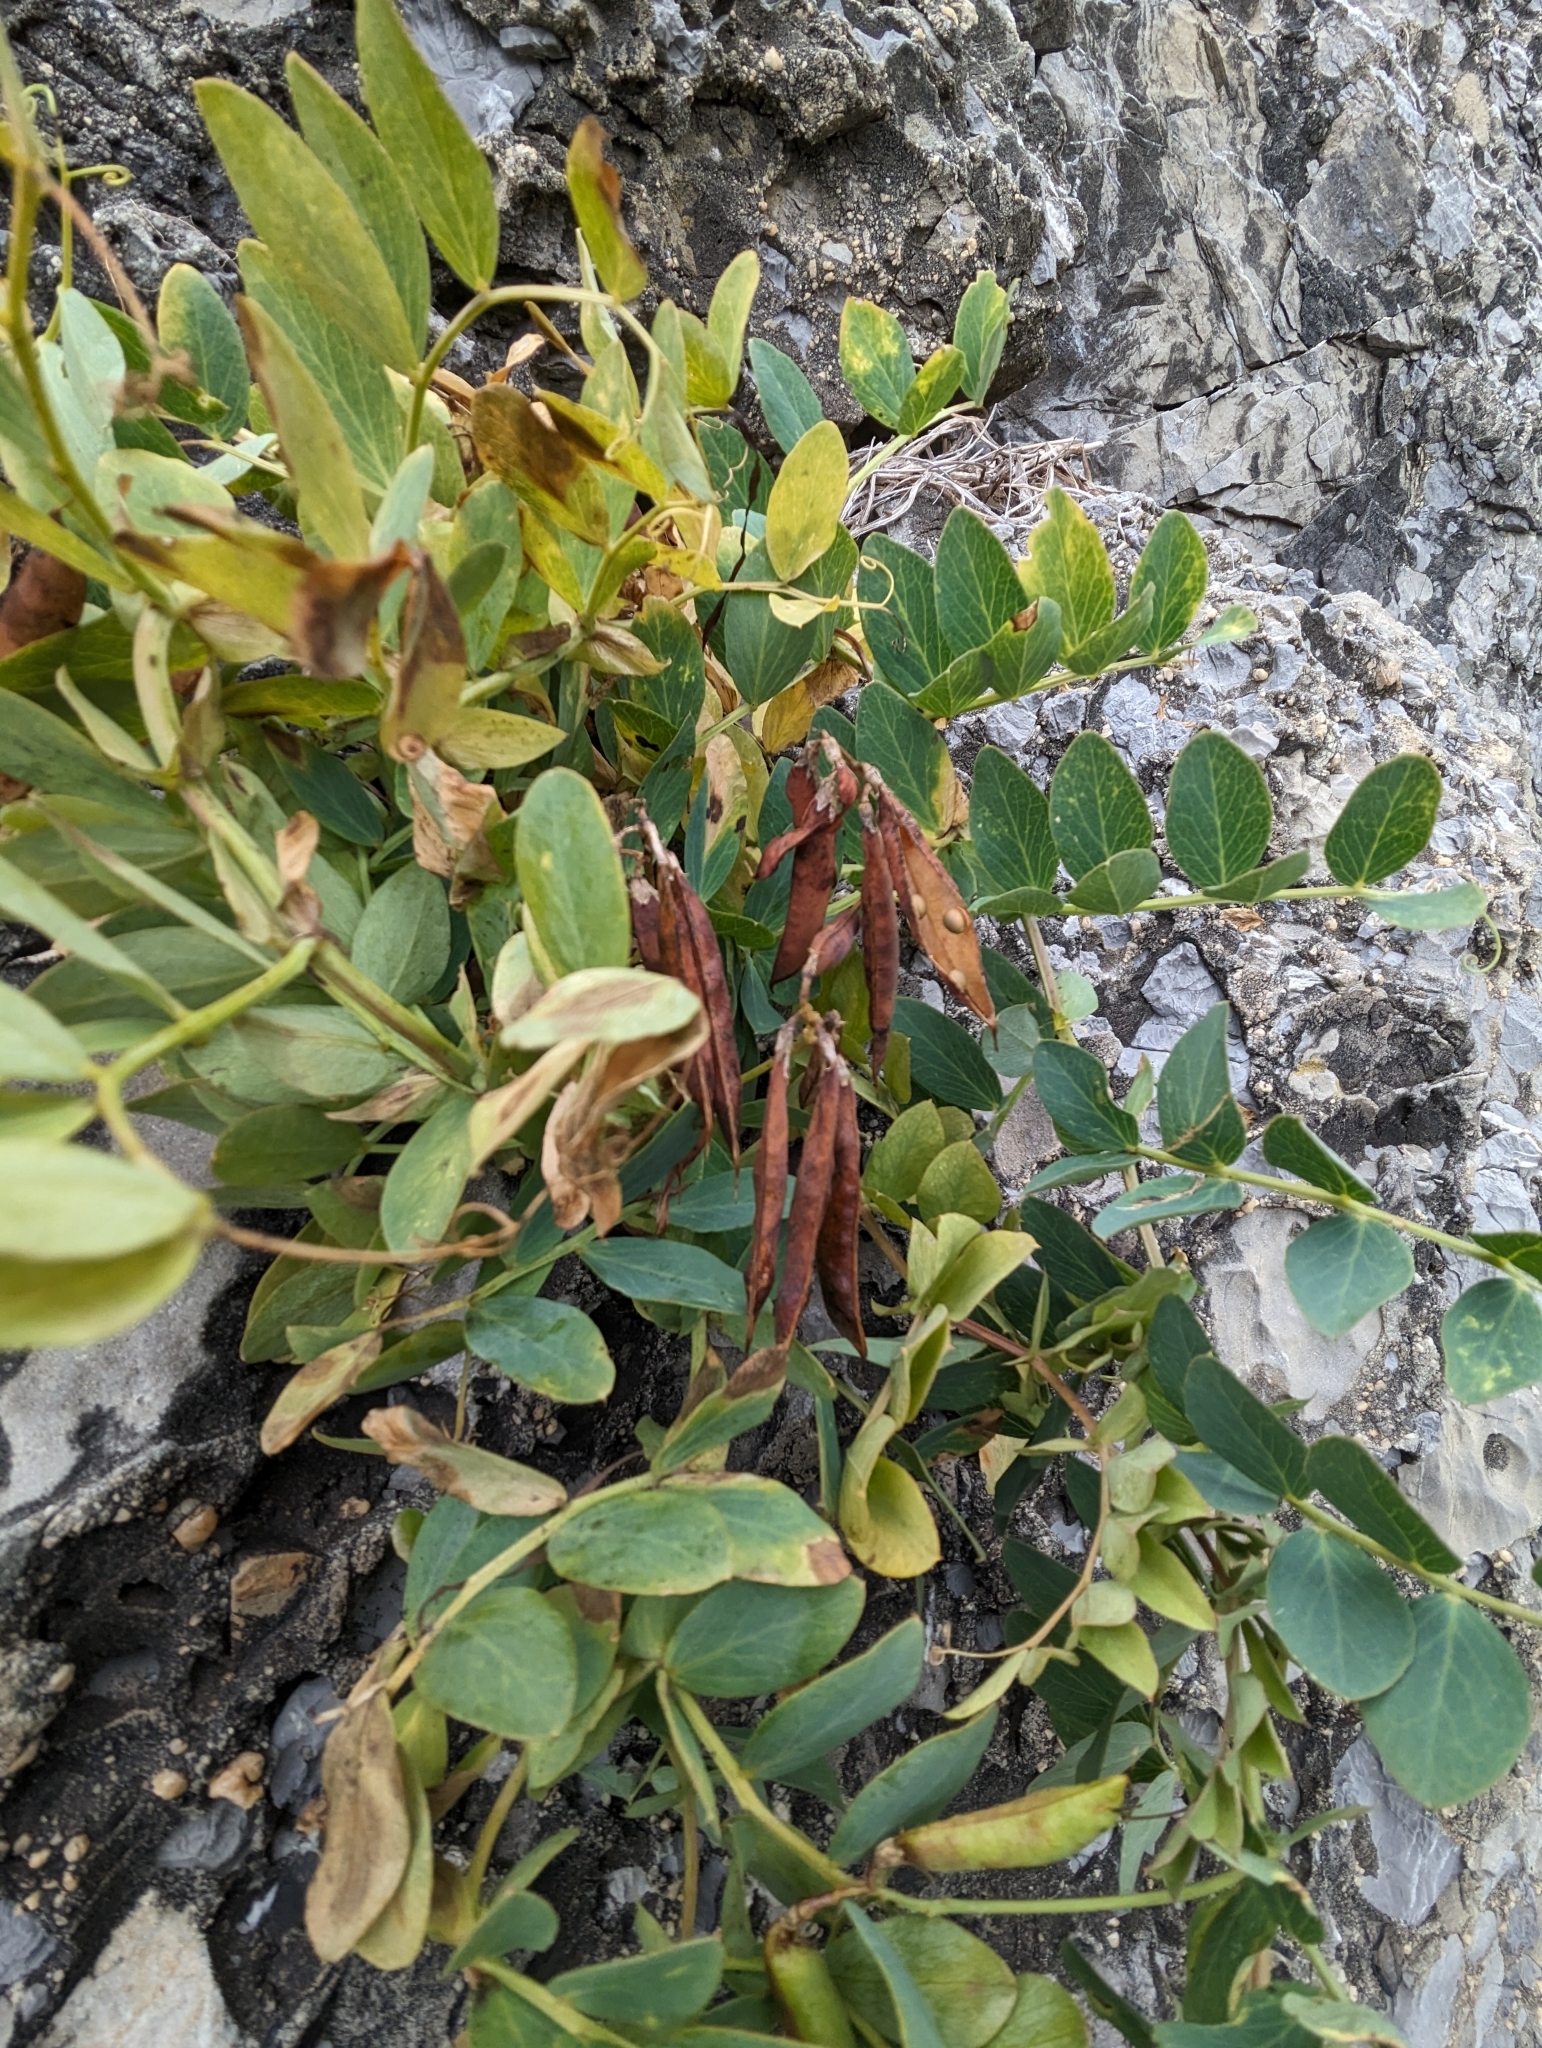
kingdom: Plantae
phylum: Tracheophyta
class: Magnoliopsida
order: Fabales
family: Fabaceae
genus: Lathyrus
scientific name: Lathyrus japonicus
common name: Sea pea
